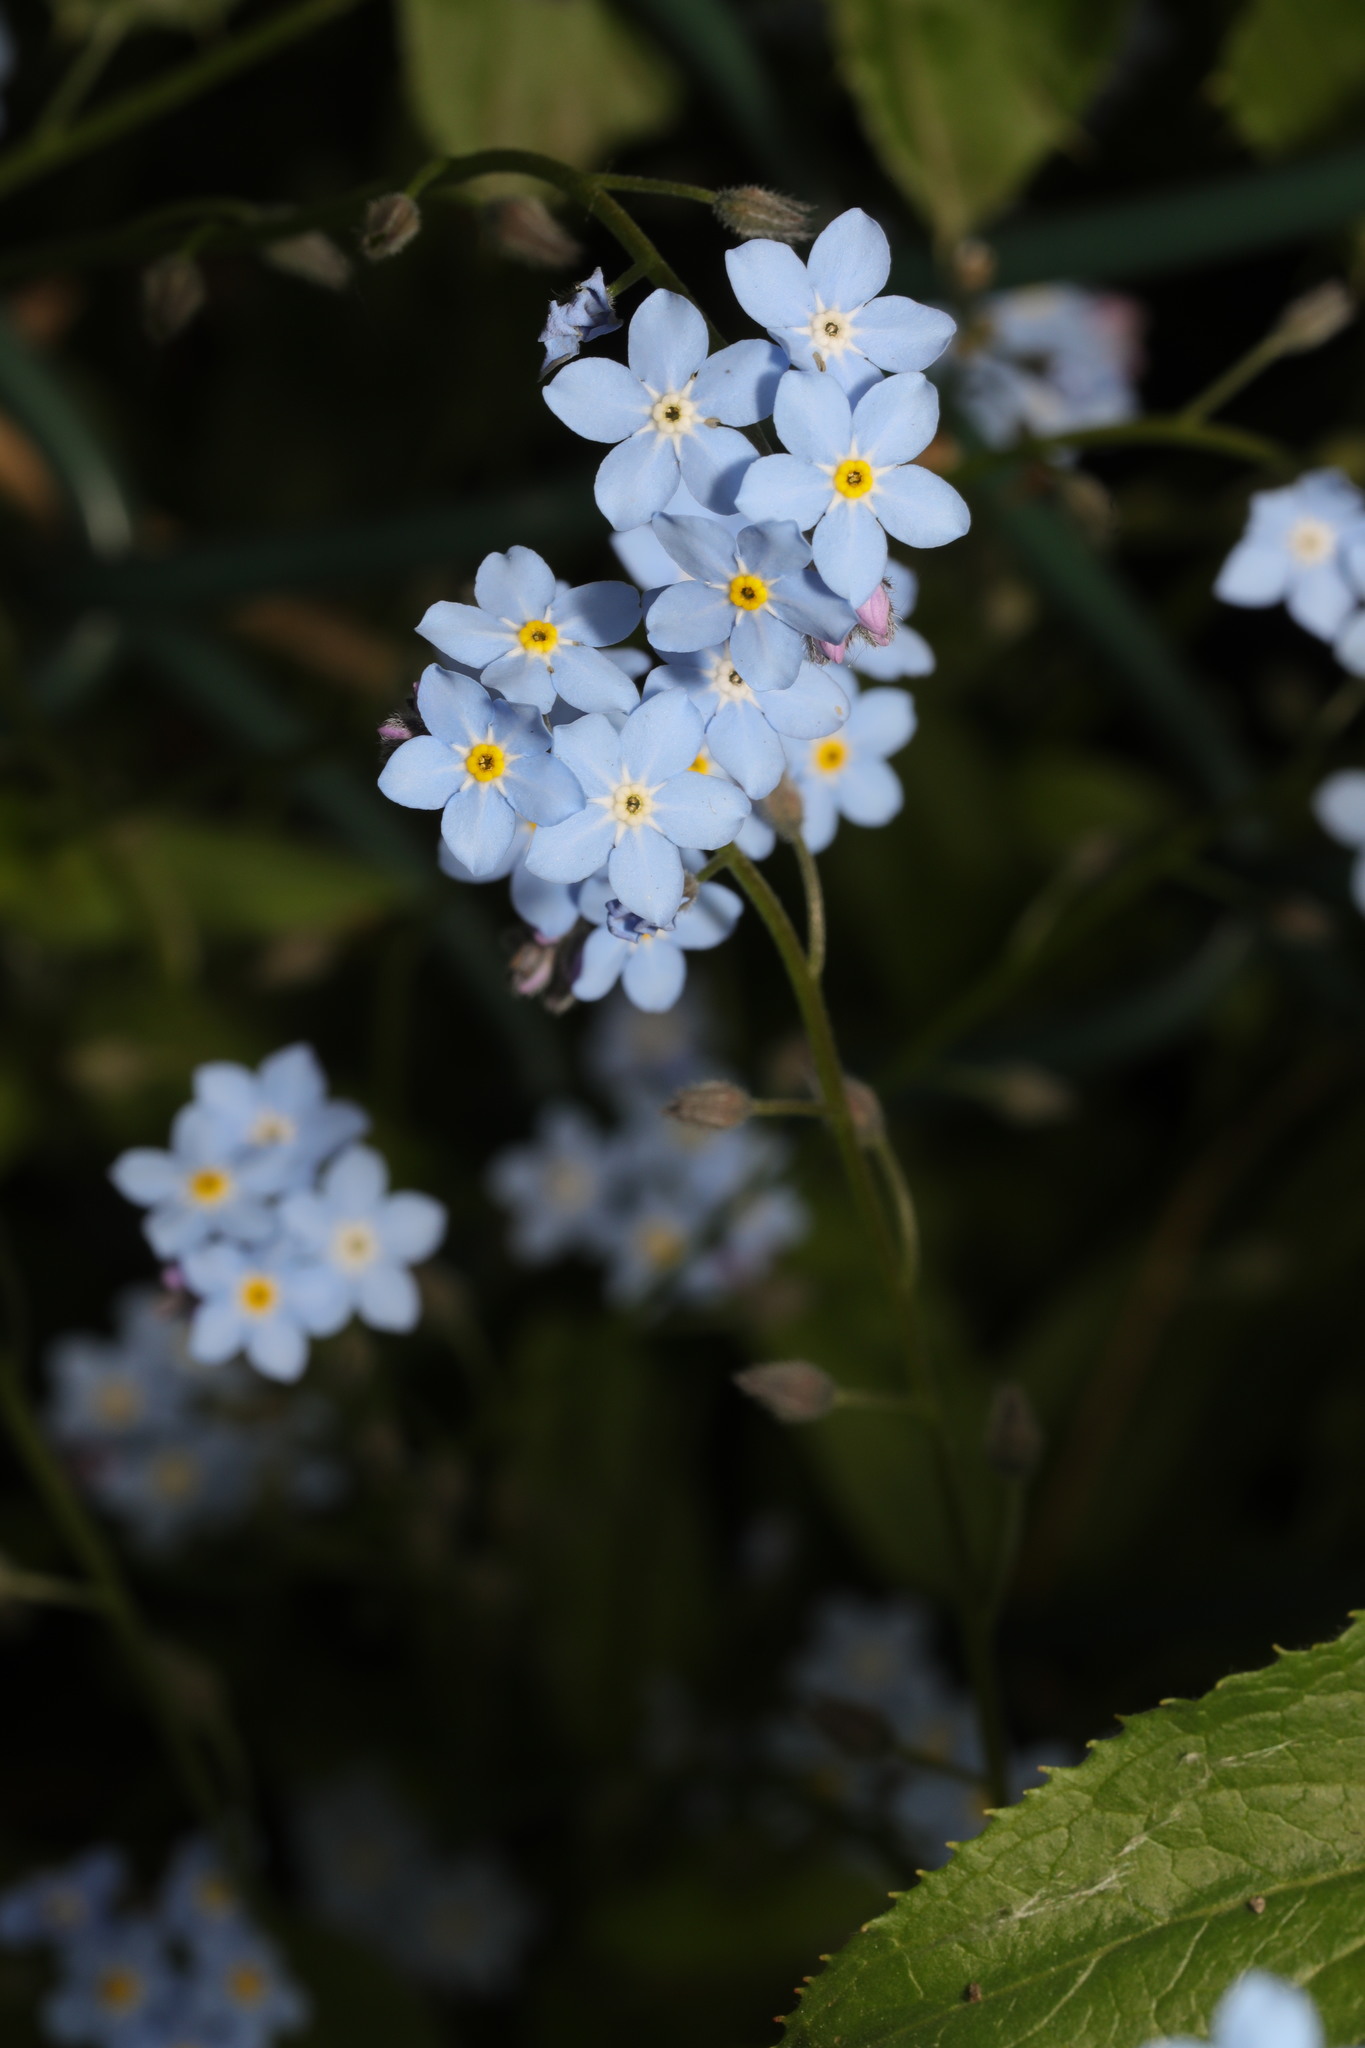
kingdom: Plantae
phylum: Tracheophyta
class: Magnoliopsida
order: Boraginales
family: Boraginaceae
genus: Myosotis
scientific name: Myosotis sylvatica
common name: Wood forget-me-not
